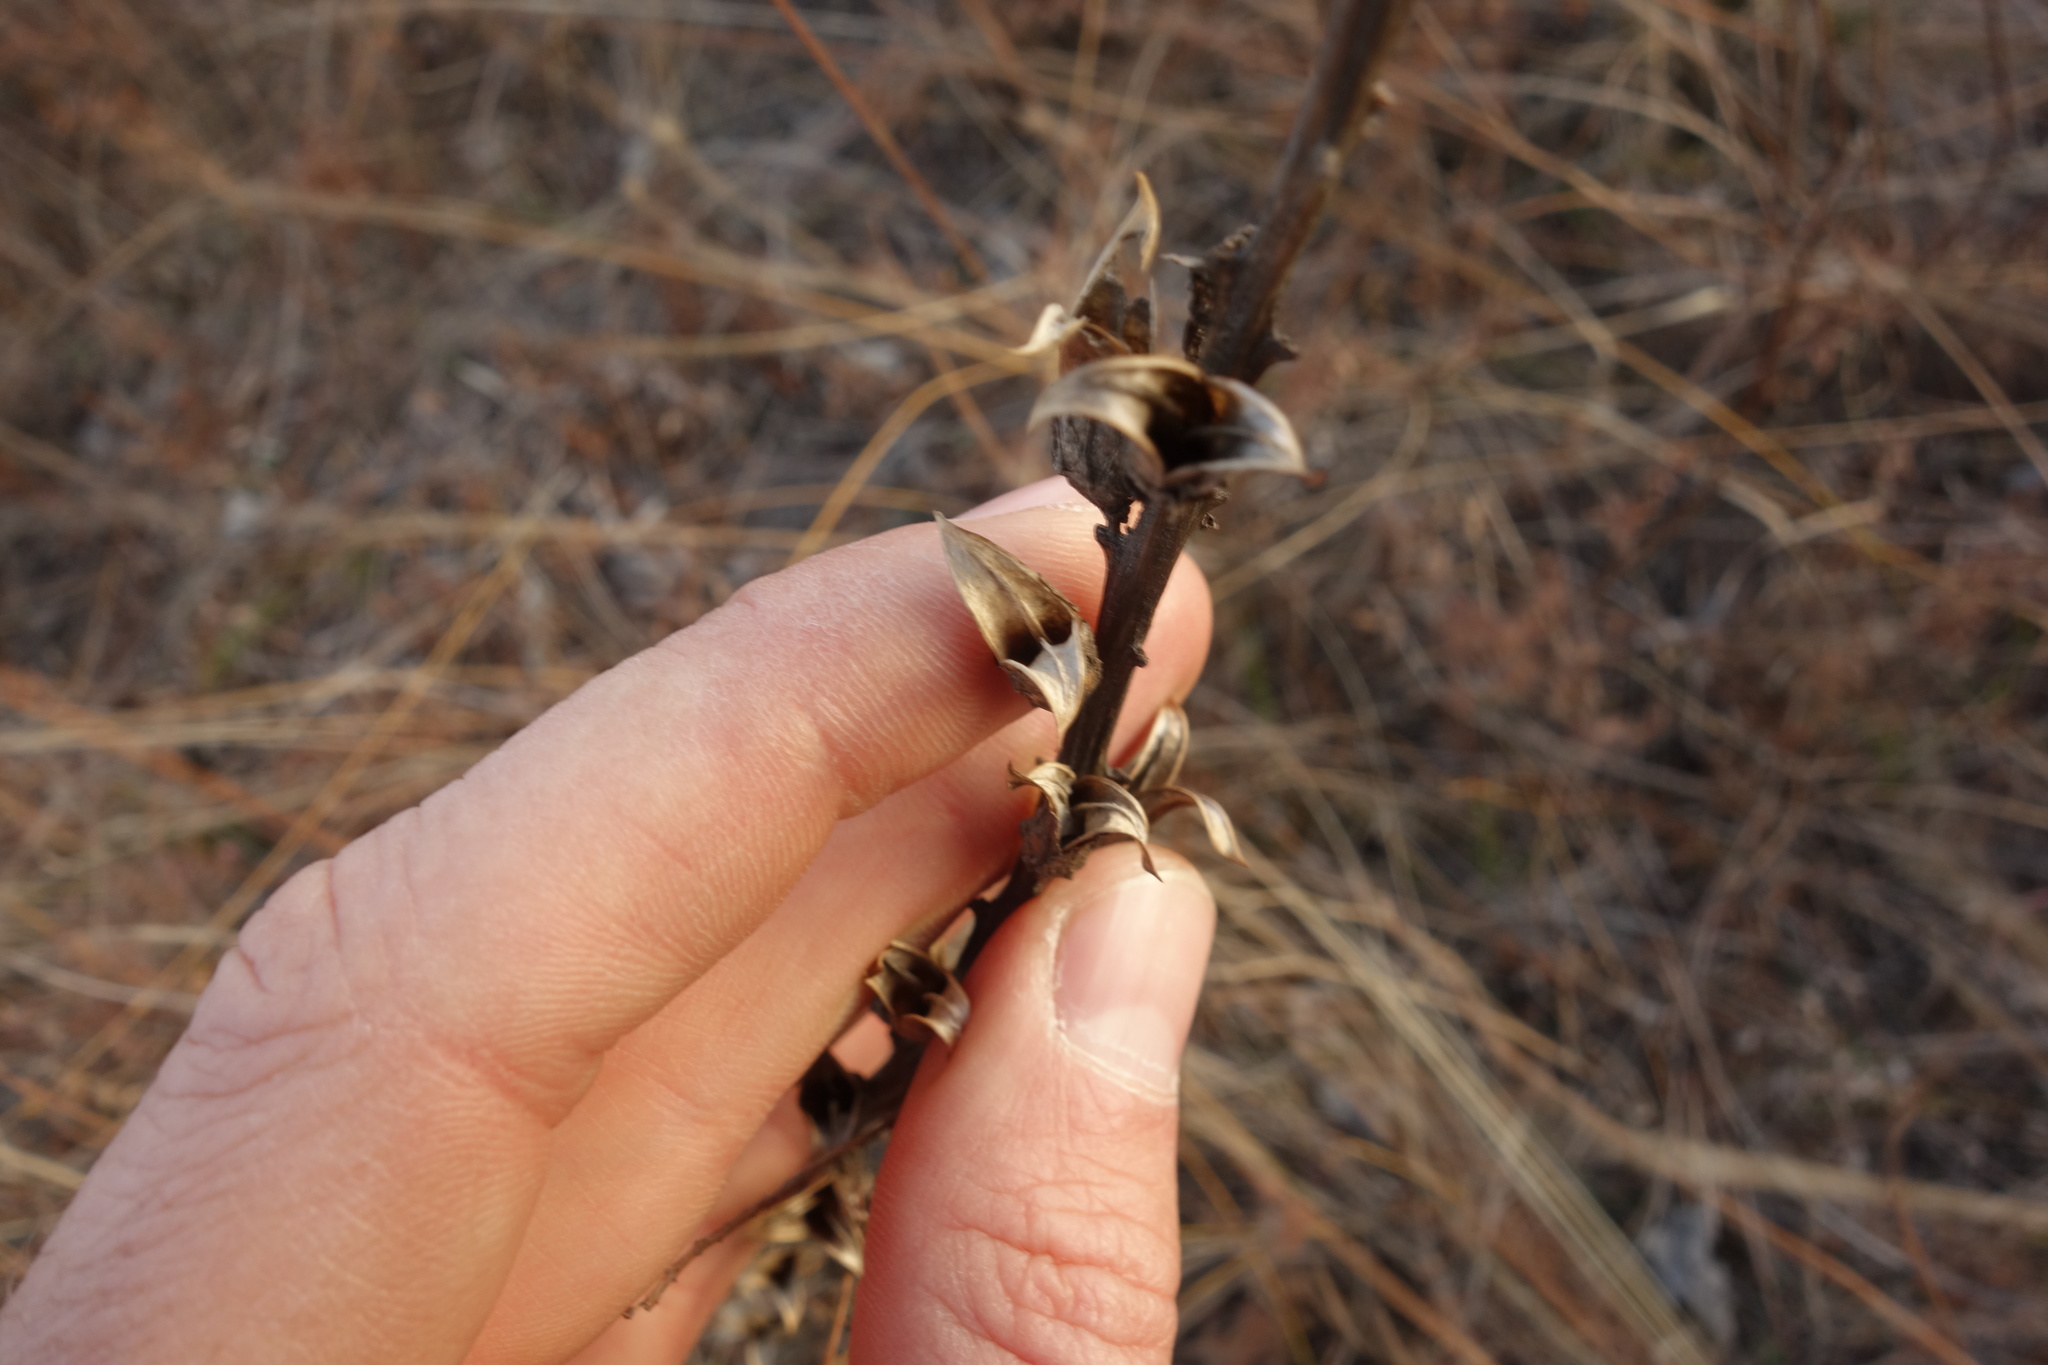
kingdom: Plantae
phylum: Tracheophyta
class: Magnoliopsida
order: Lamiales
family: Orobanchaceae
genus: Pedicularis
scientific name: Pedicularis kaufmannii
